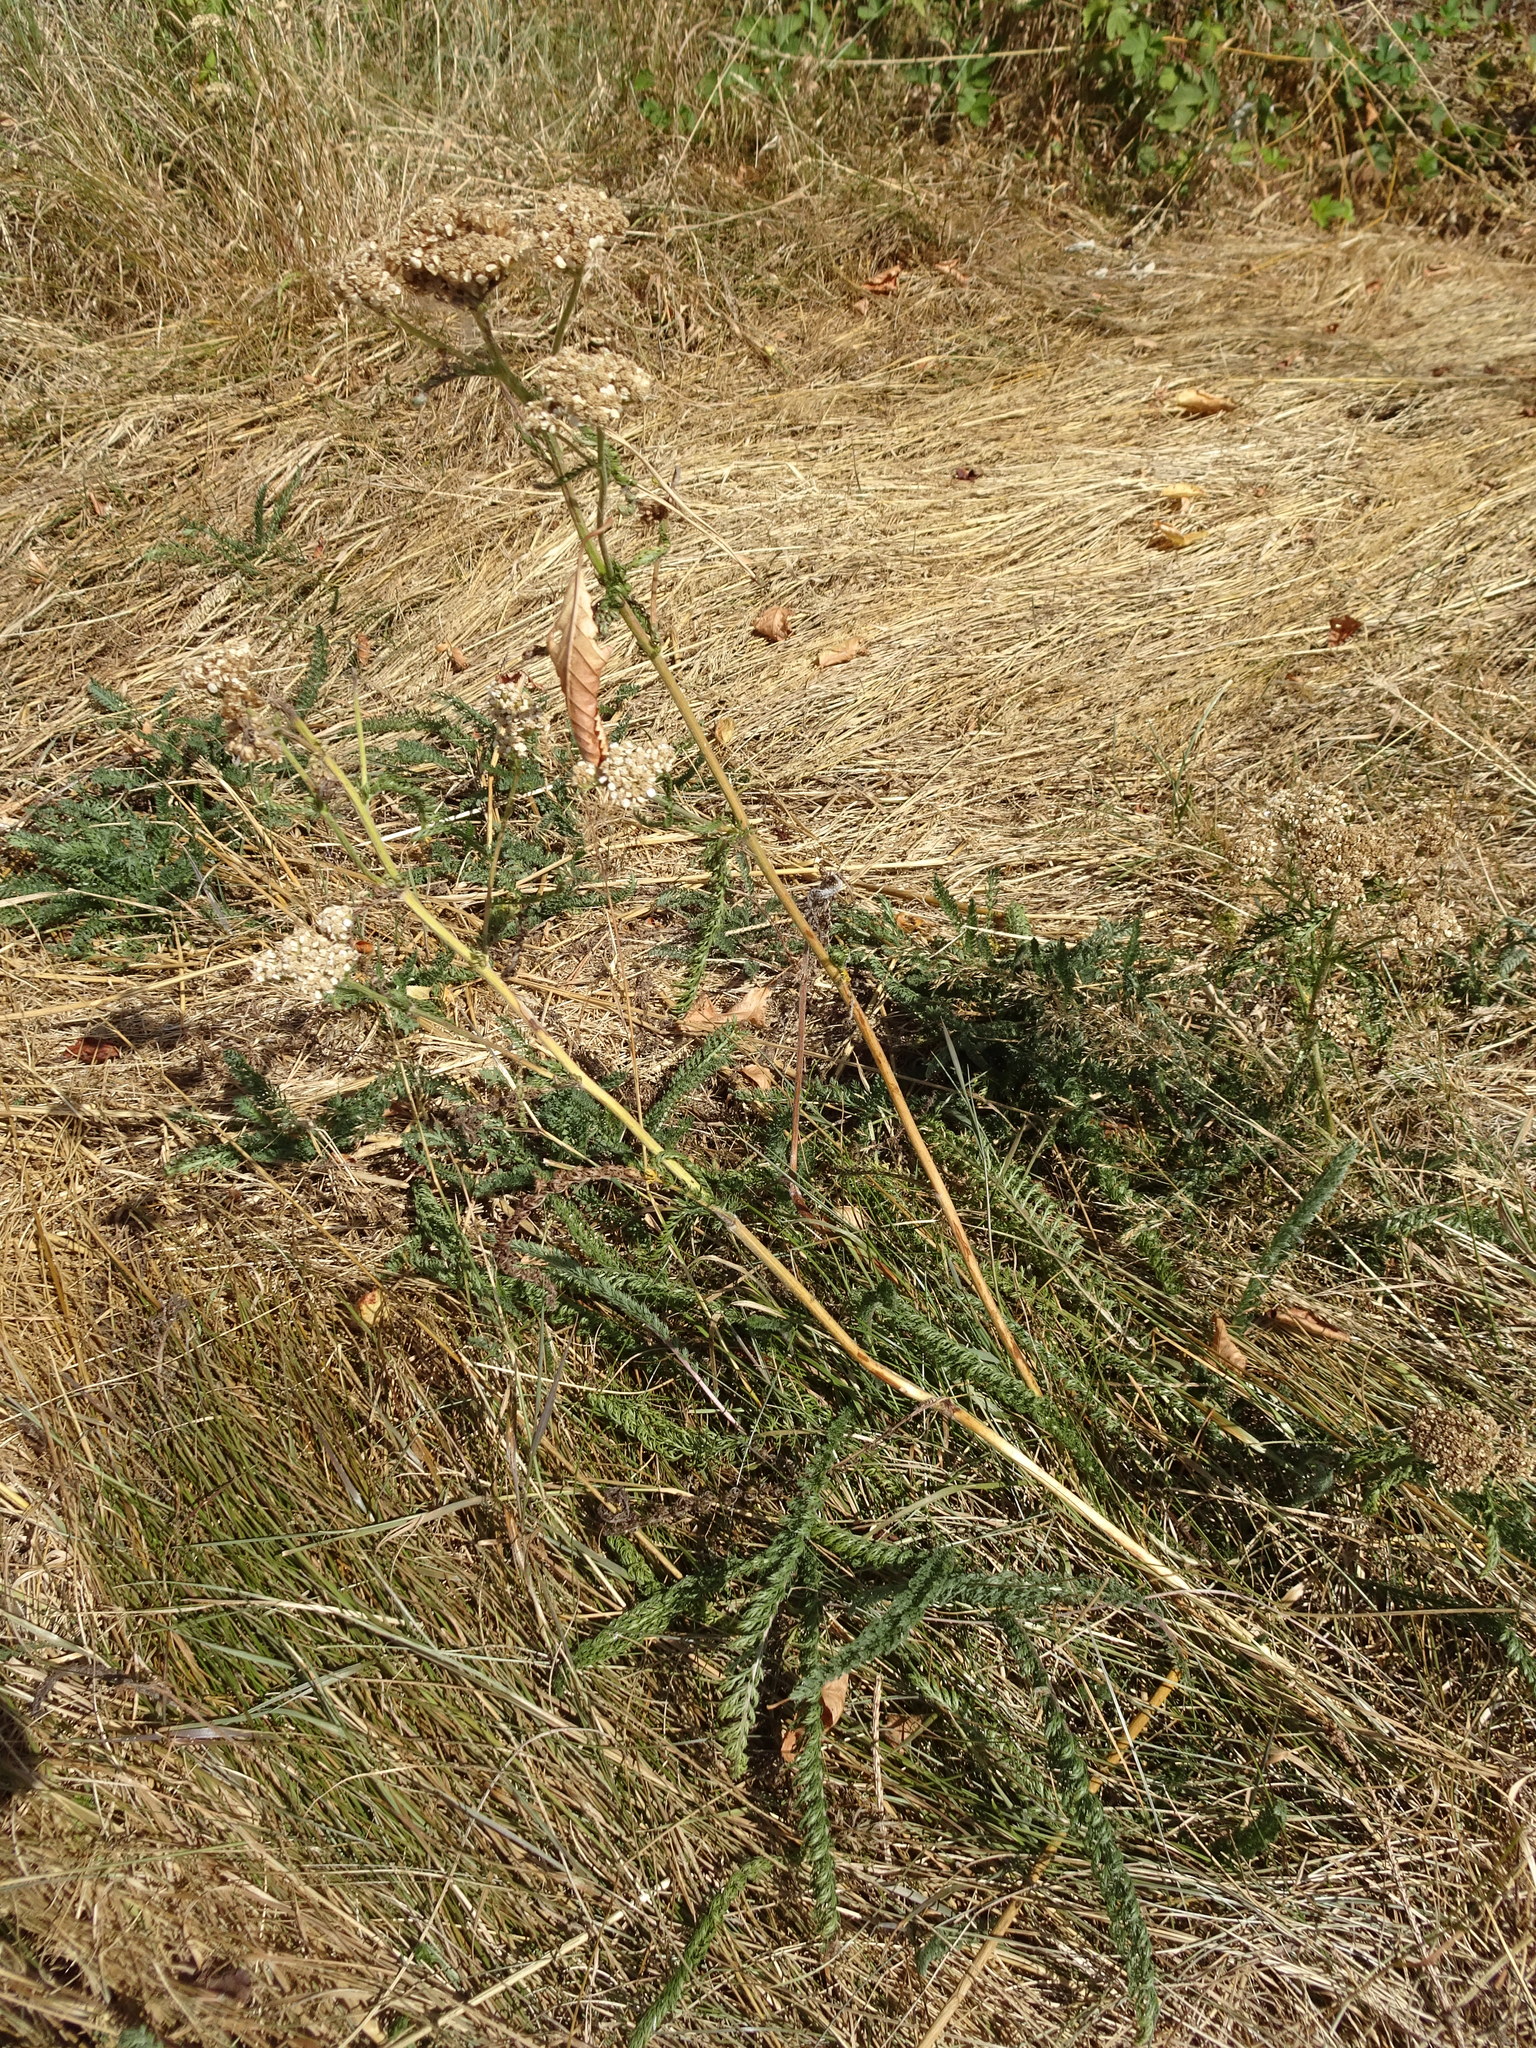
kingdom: Plantae
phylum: Tracheophyta
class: Magnoliopsida
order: Asterales
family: Asteraceae
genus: Achillea
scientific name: Achillea millefolium
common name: Yarrow
